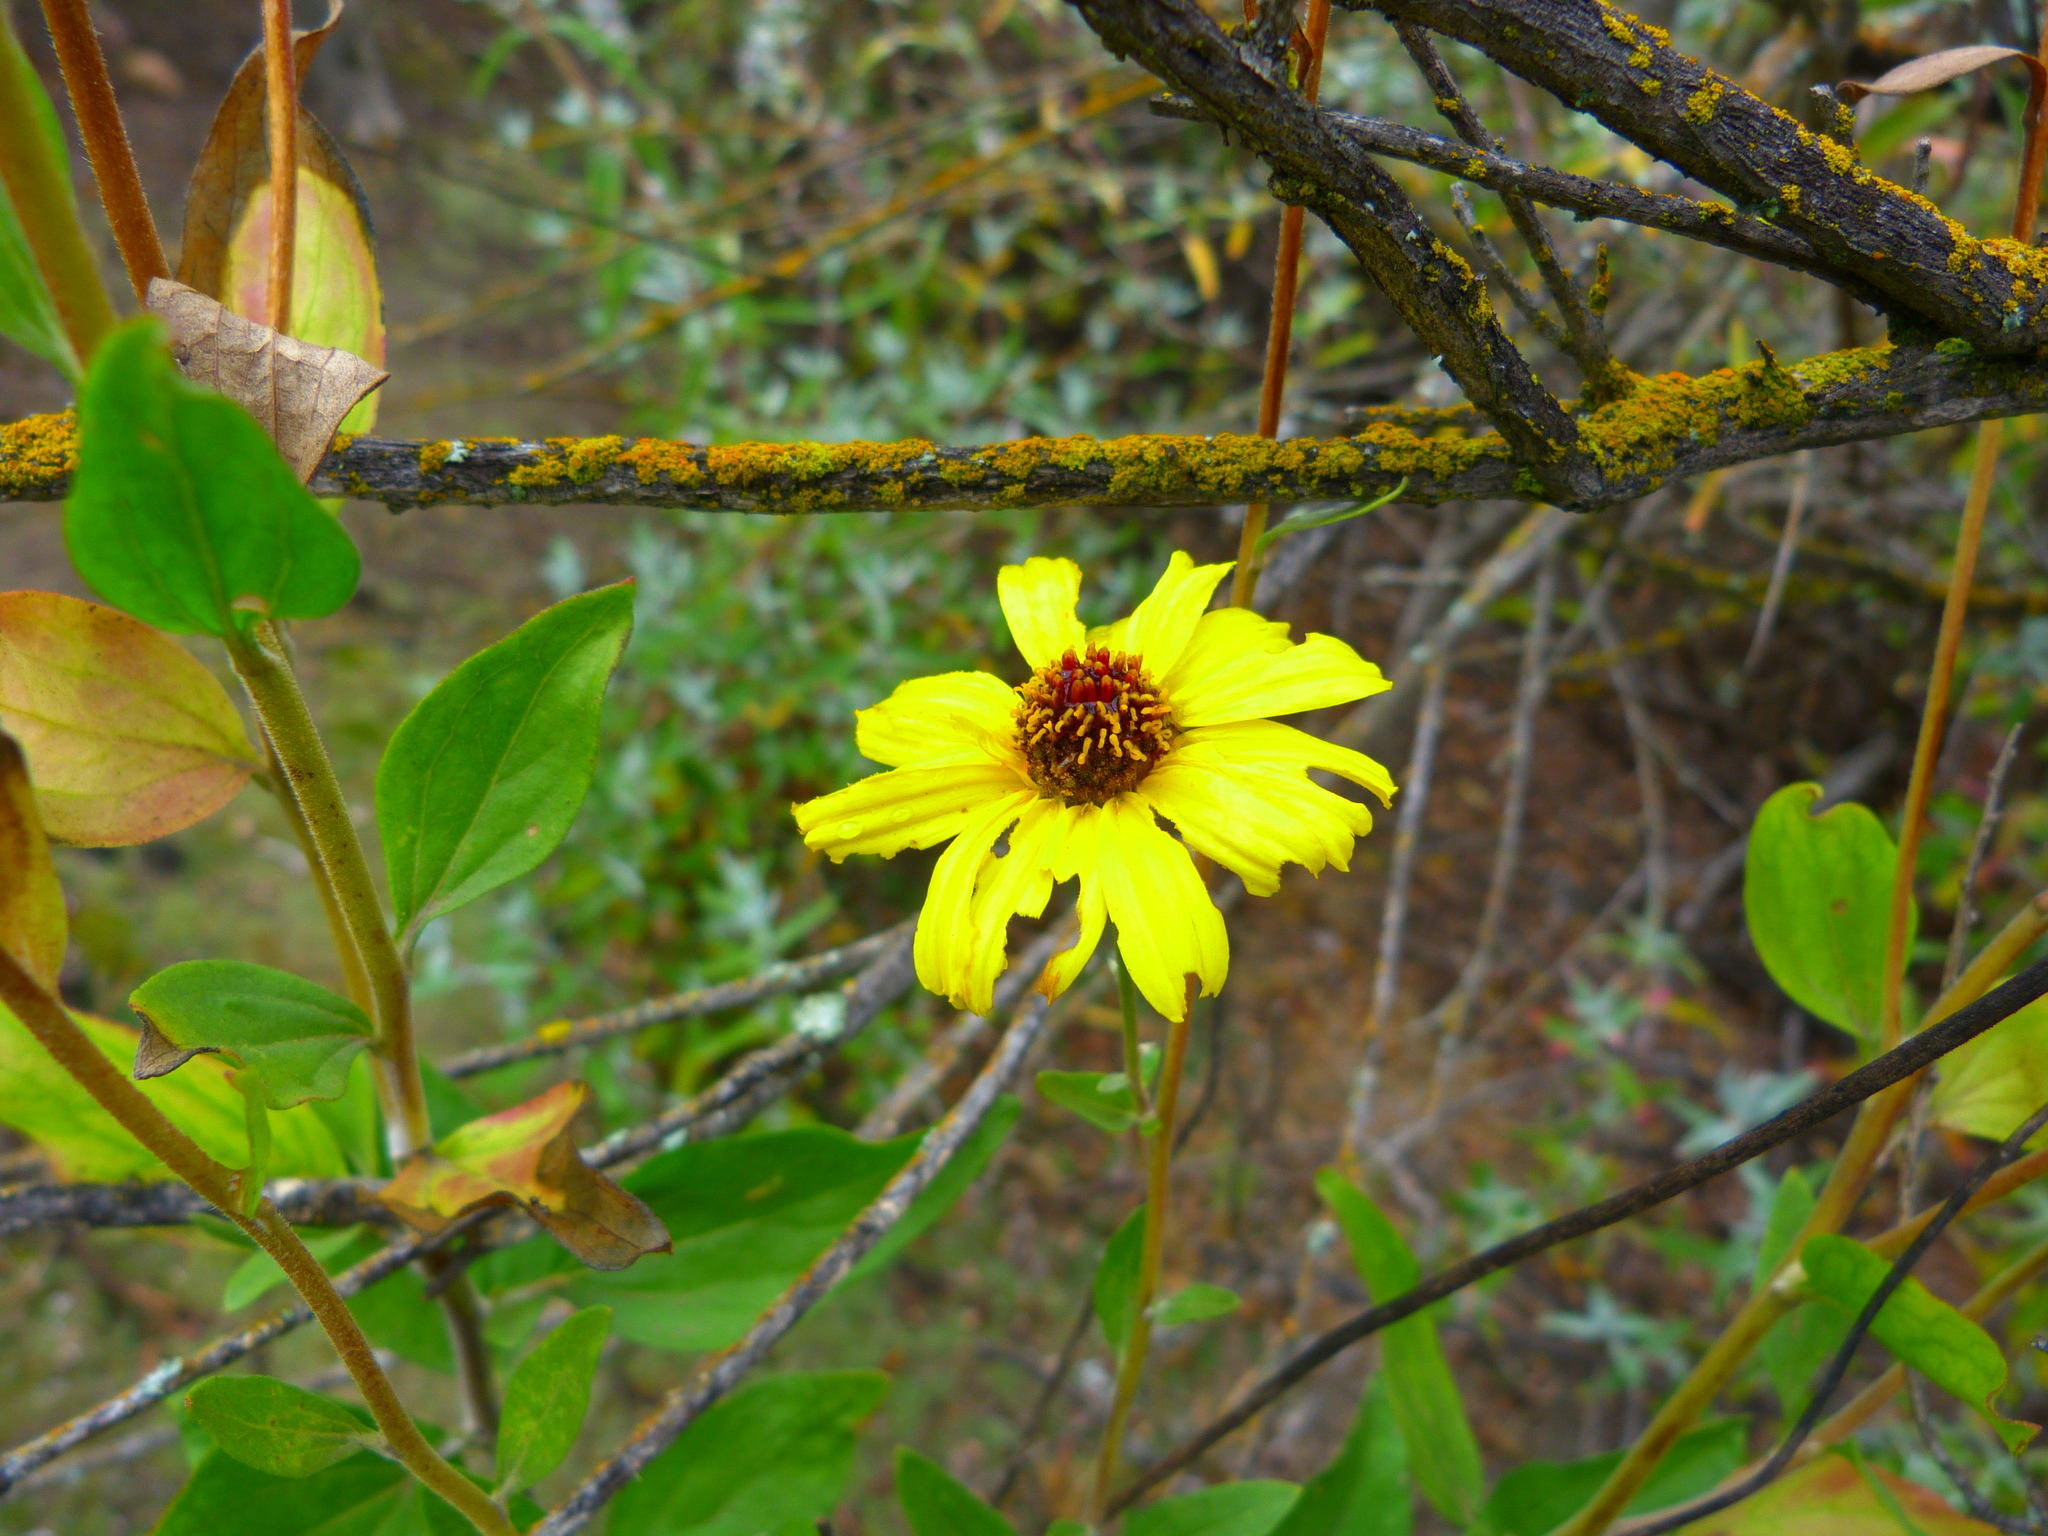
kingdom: Plantae
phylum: Tracheophyta
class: Magnoliopsida
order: Asterales
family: Asteraceae
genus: Encelia
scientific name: Encelia californica
